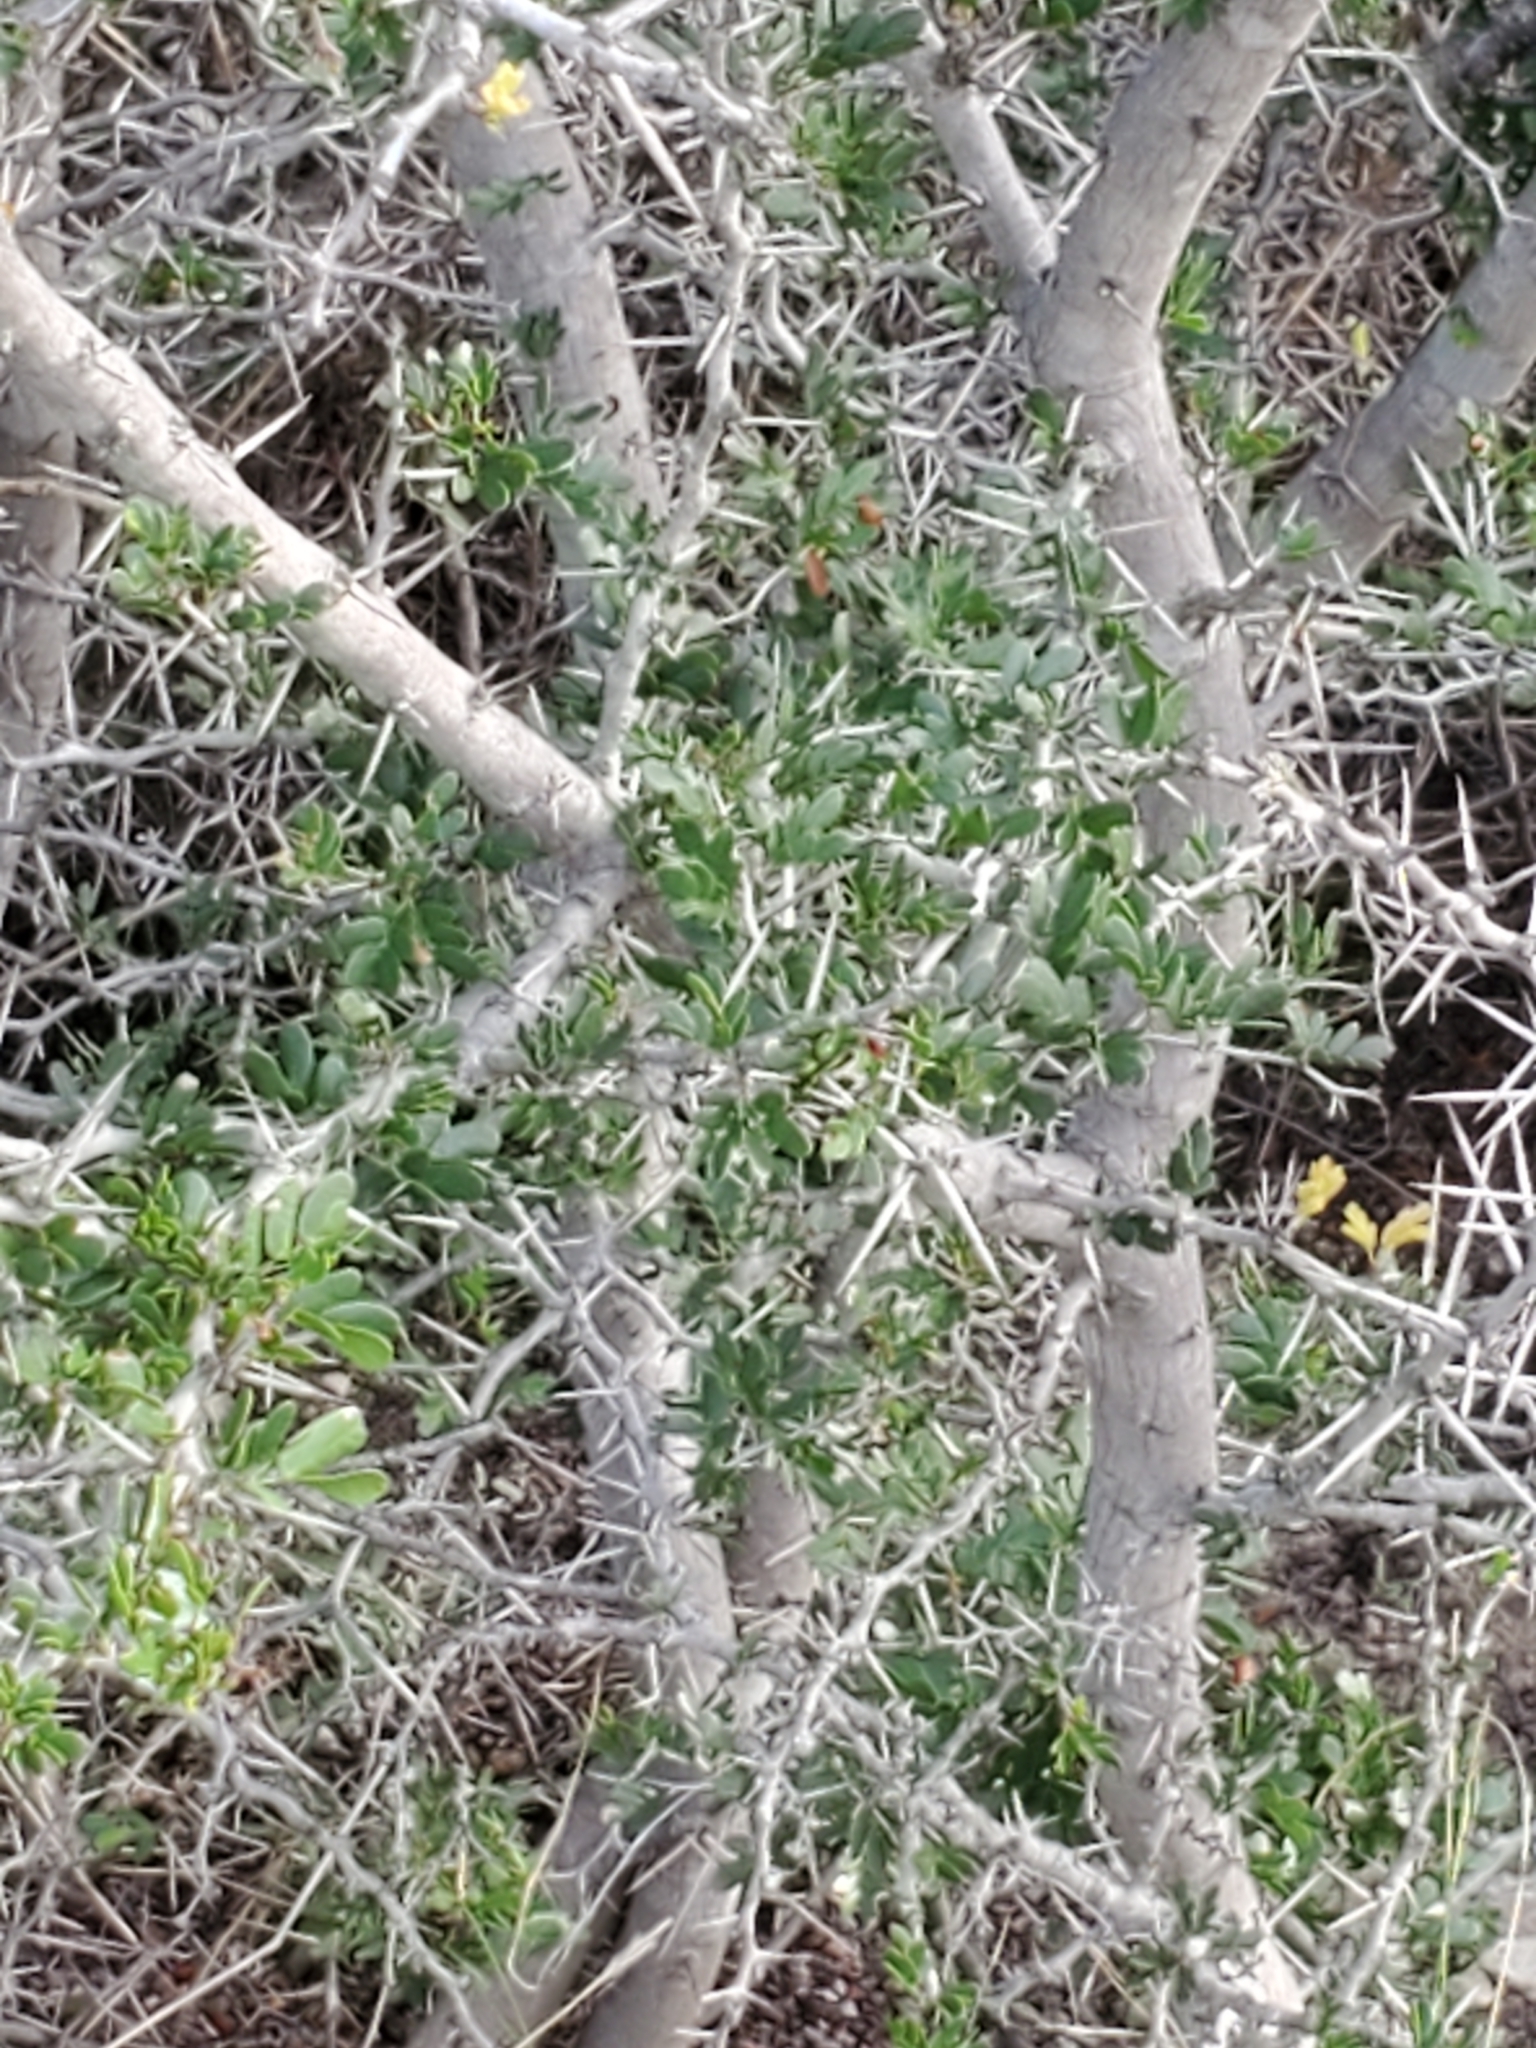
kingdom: Plantae
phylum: Tracheophyta
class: Magnoliopsida
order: Fabales
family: Fabaceae
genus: Vachellia
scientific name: Vachellia rigidula
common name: Blackbrush
